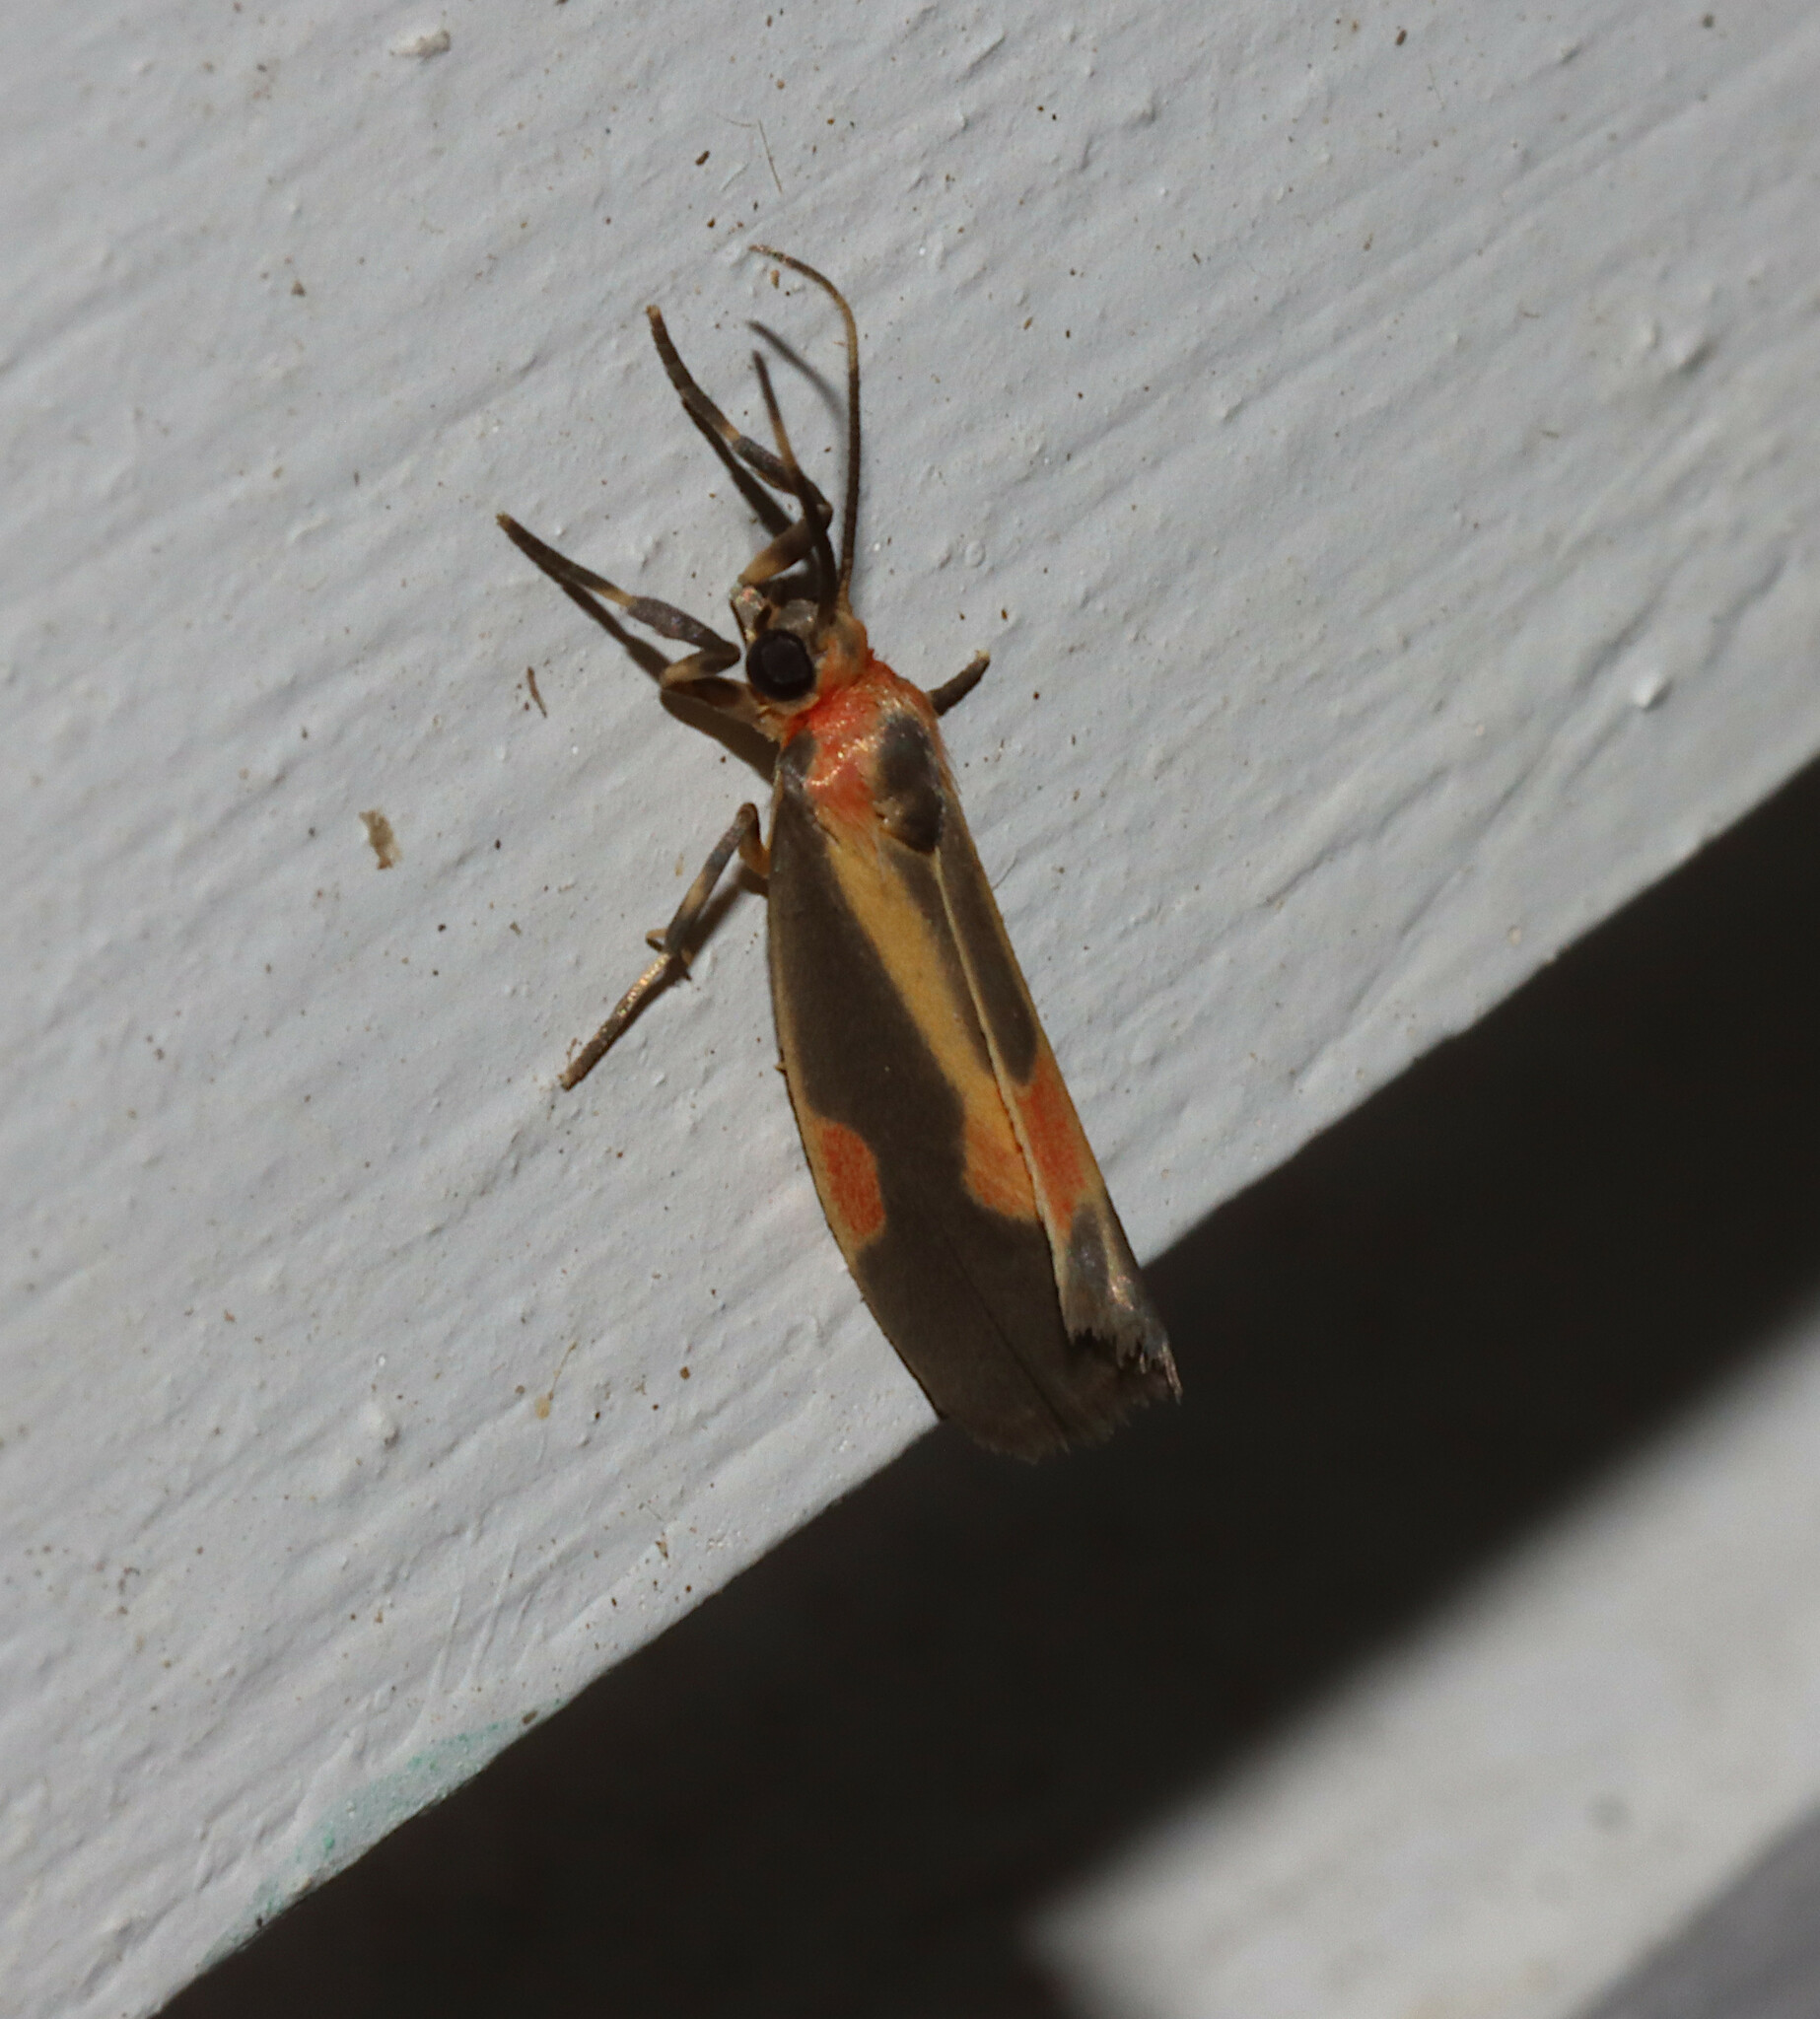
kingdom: Animalia
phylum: Arthropoda
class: Insecta
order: Lepidoptera
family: Erebidae
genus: Cisthene
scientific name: Cisthene packardii
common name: Packard's lichen moth
